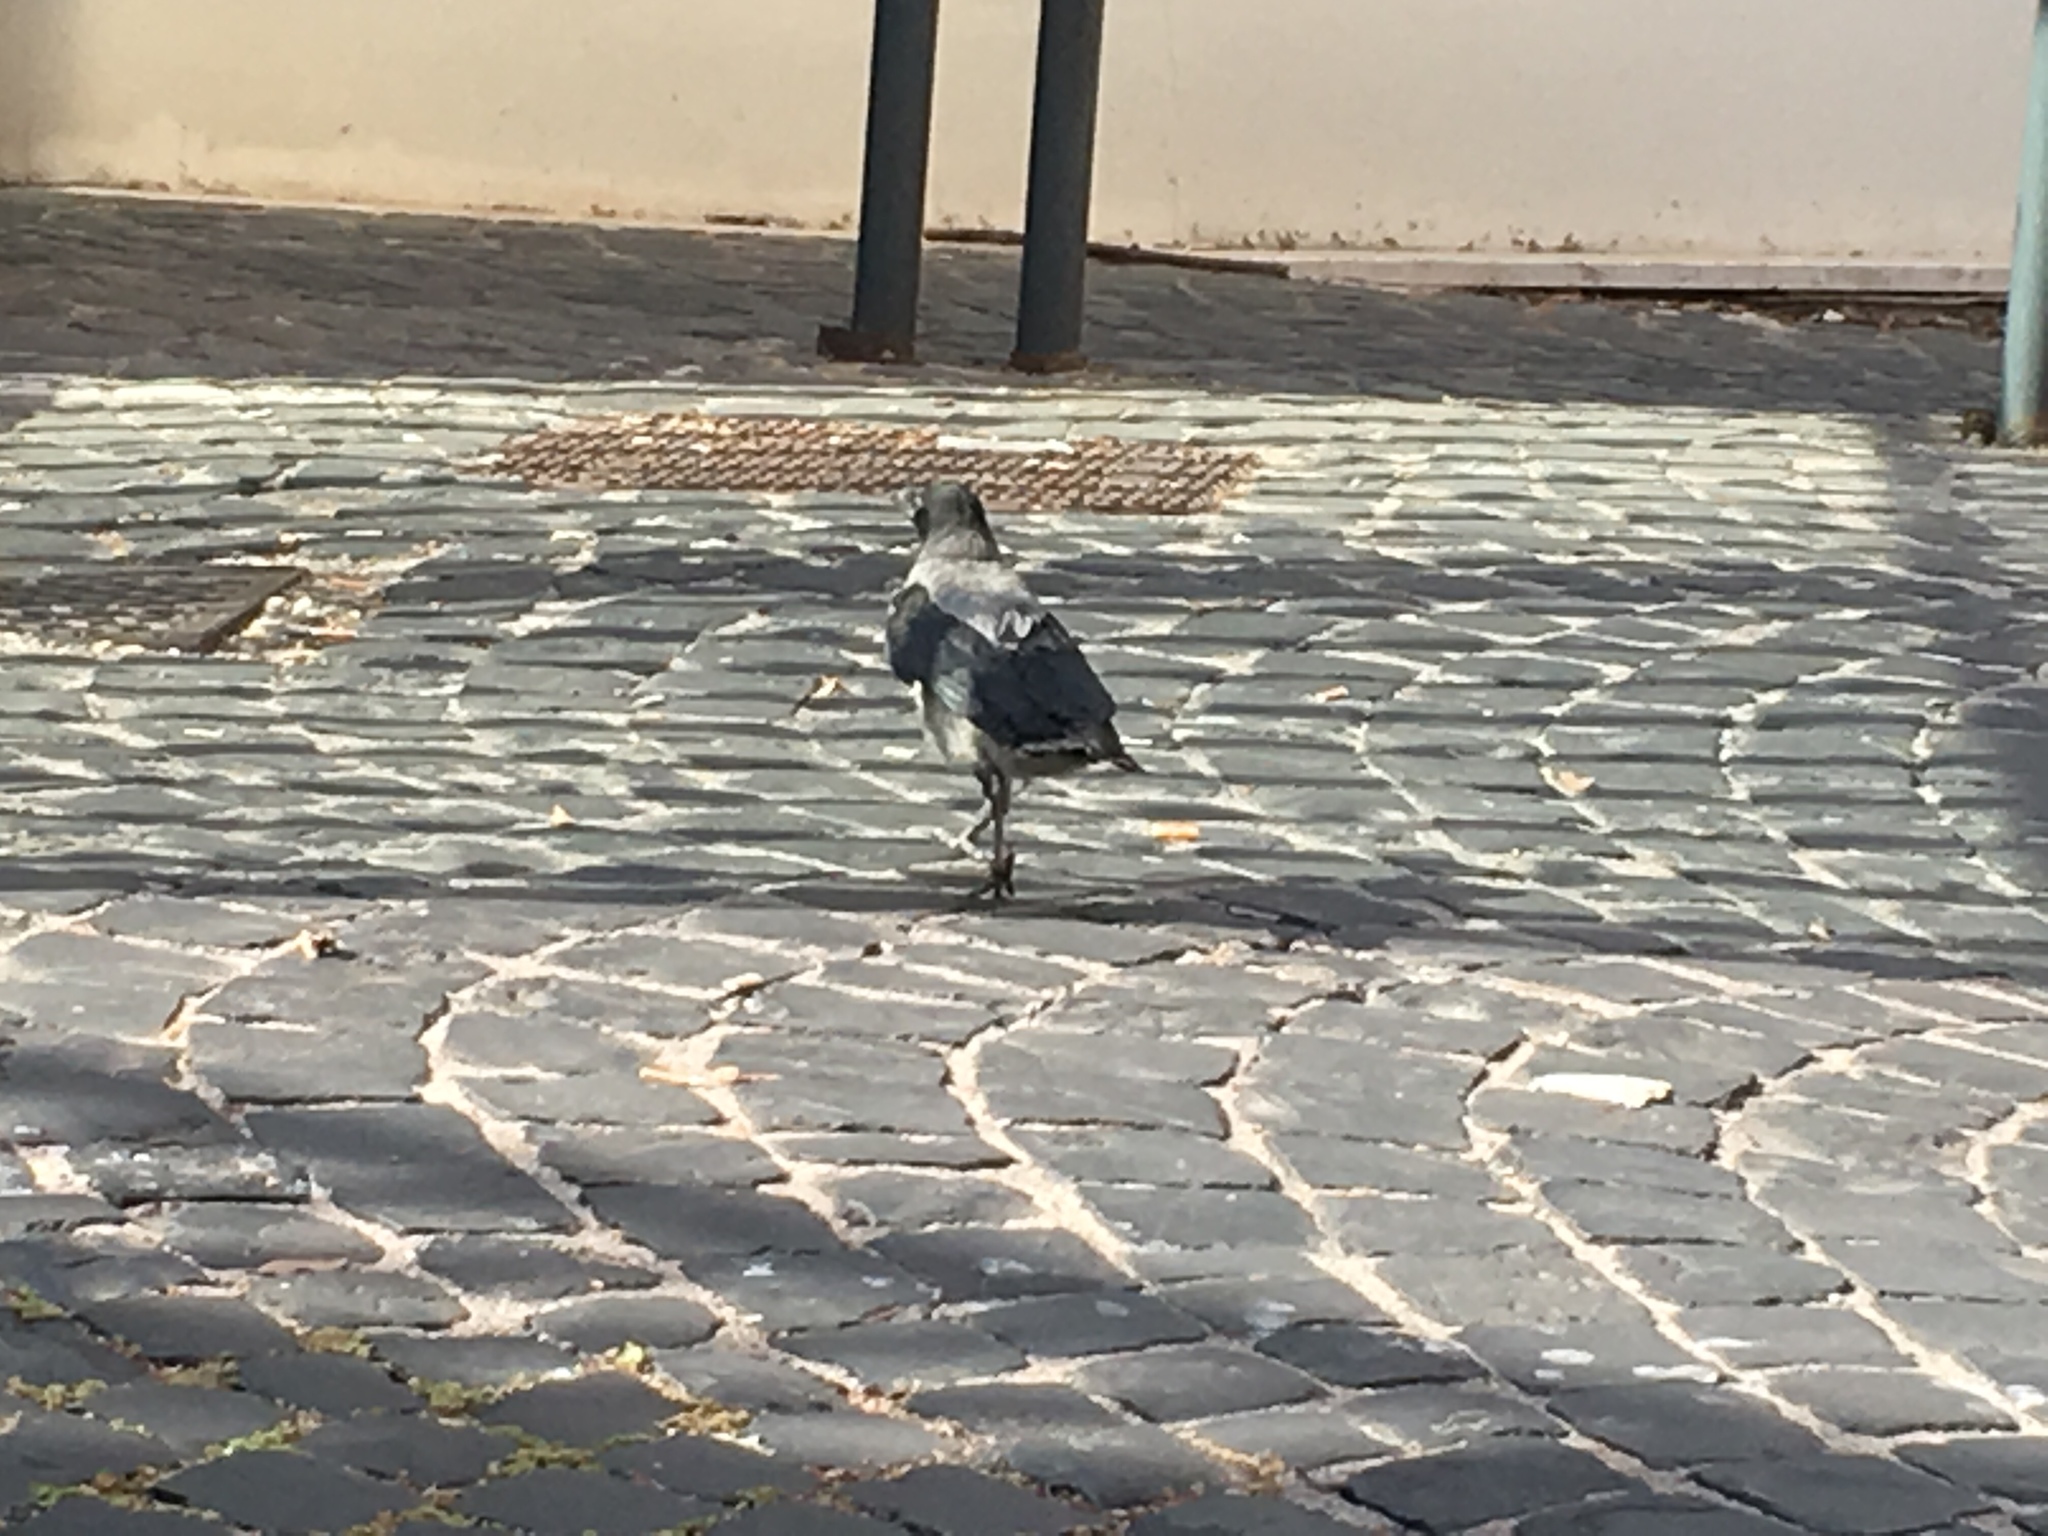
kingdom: Animalia
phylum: Chordata
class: Aves
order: Passeriformes
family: Corvidae
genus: Corvus
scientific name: Corvus cornix
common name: Hooded crow
